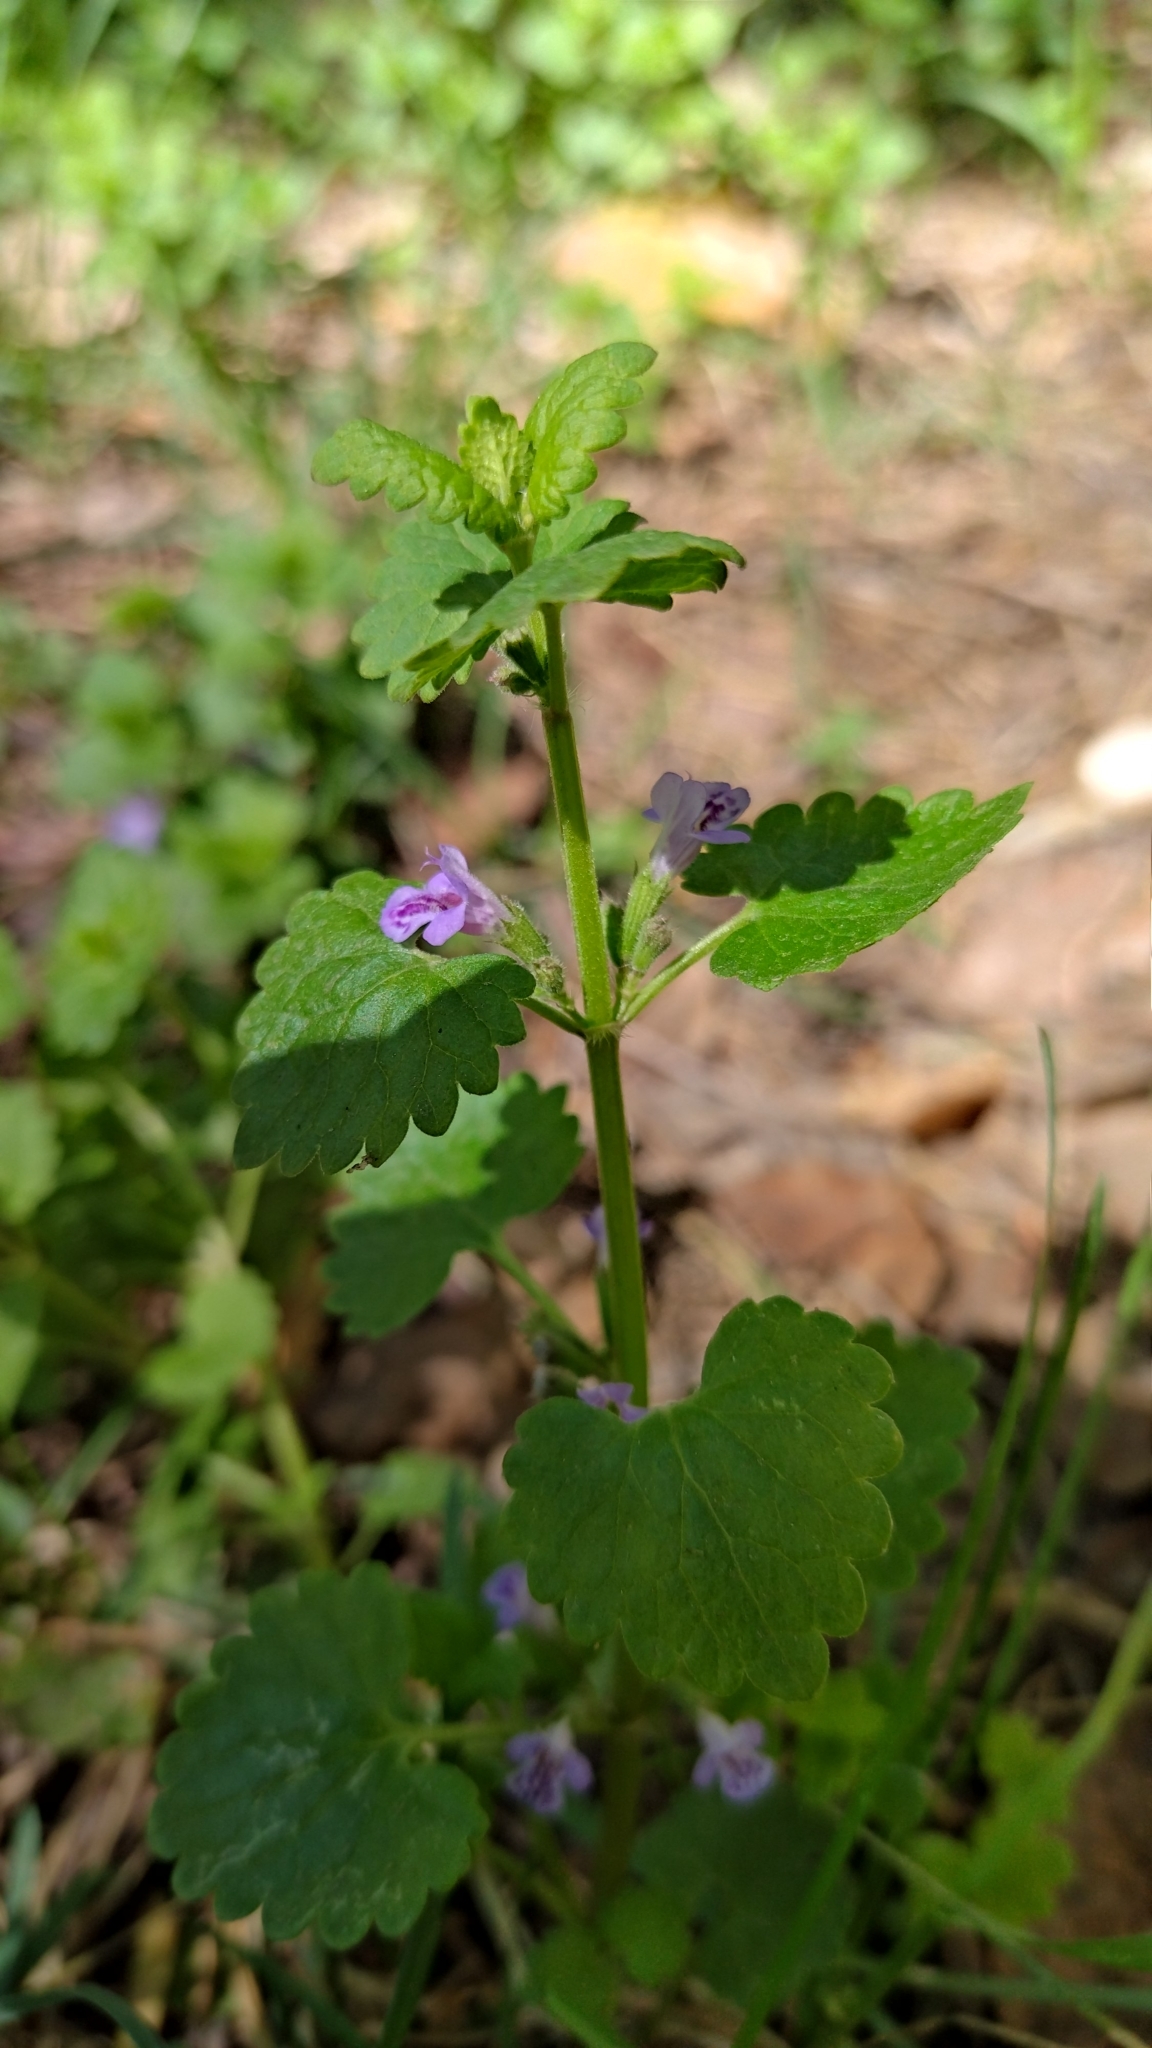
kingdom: Plantae
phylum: Tracheophyta
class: Magnoliopsida
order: Lamiales
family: Lamiaceae
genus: Glechoma
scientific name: Glechoma hederacea
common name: Ground ivy
